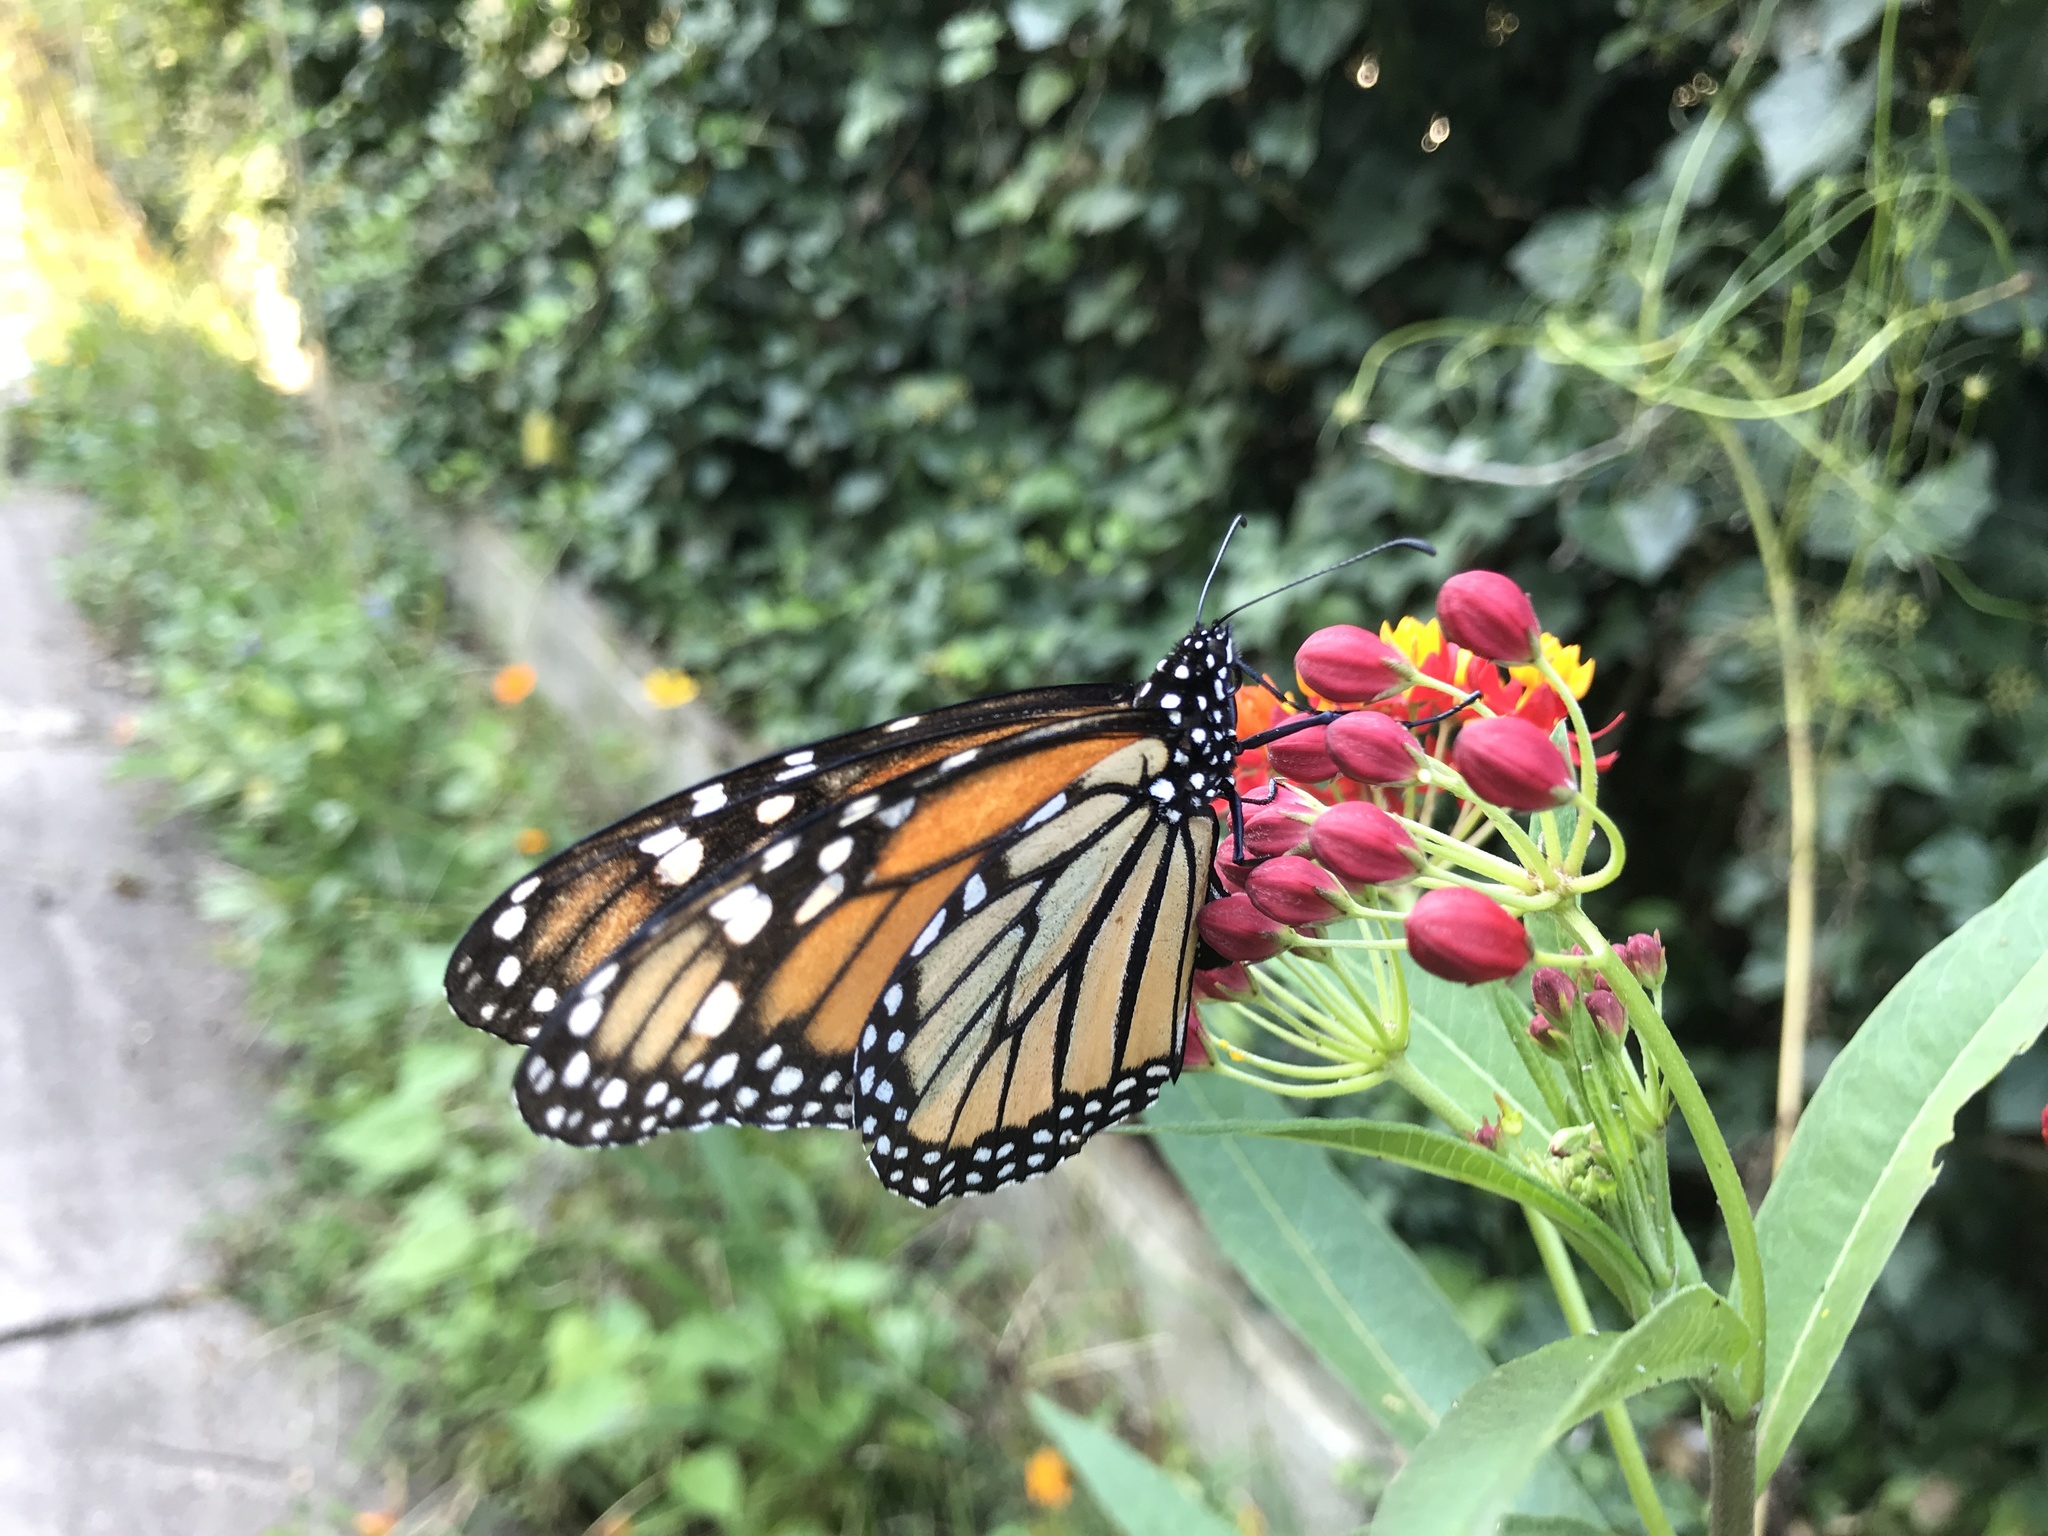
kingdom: Animalia
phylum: Arthropoda
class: Insecta
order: Lepidoptera
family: Nymphalidae
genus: Danaus
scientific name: Danaus plexippus
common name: Monarch
